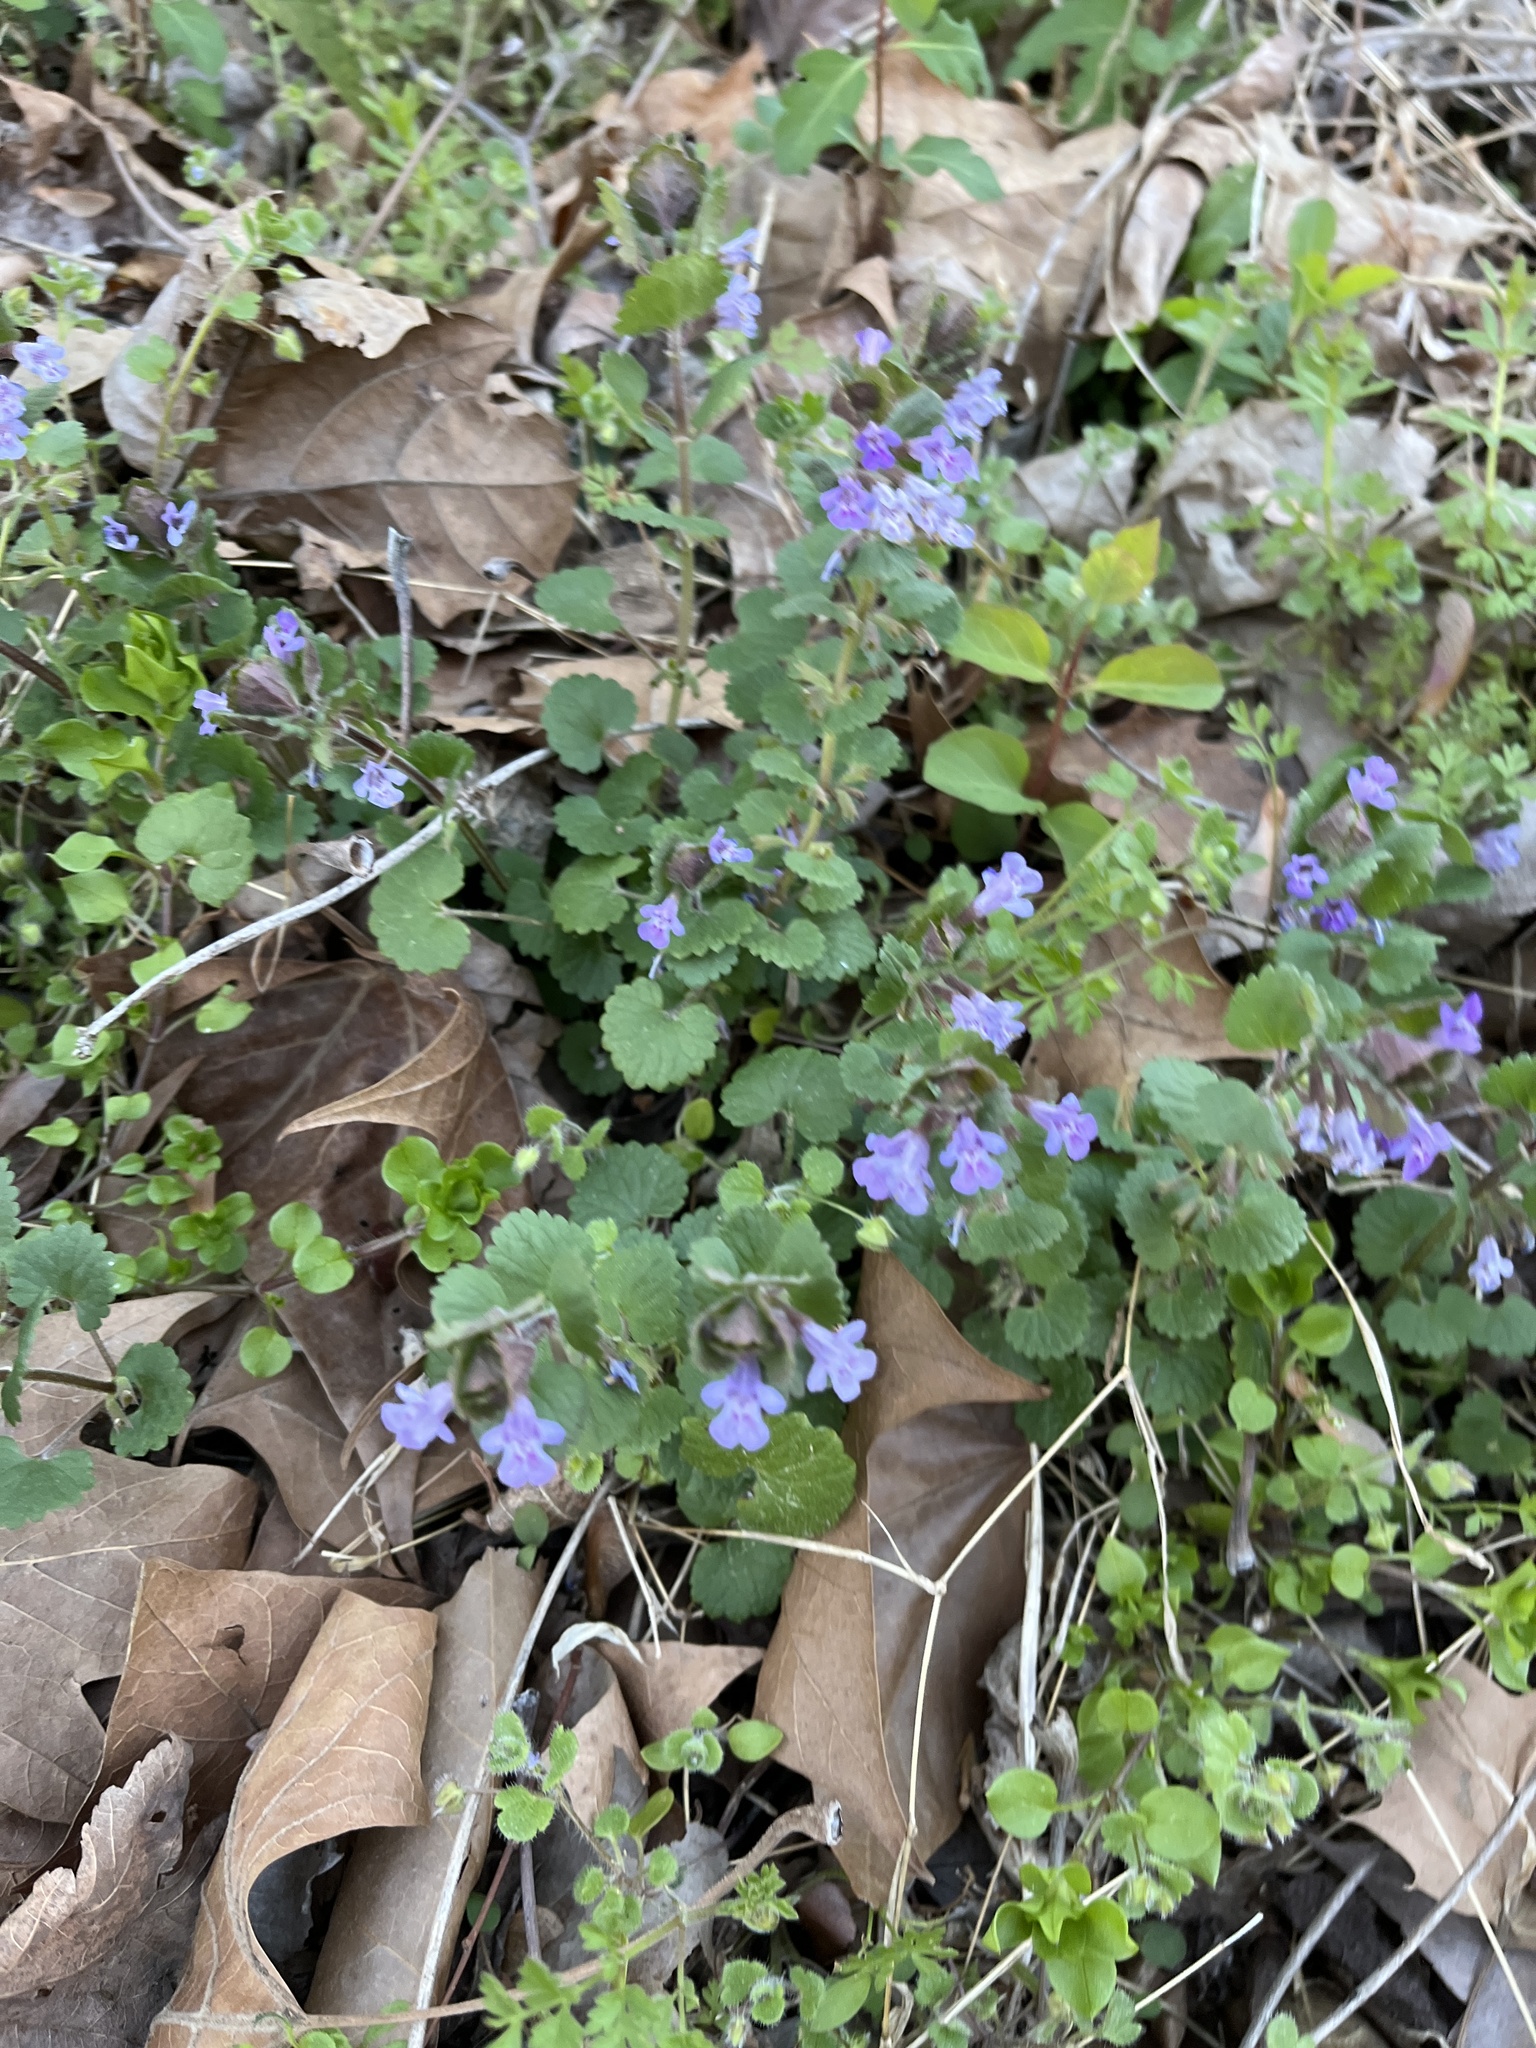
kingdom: Plantae
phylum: Tracheophyta
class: Magnoliopsida
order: Lamiales
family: Lamiaceae
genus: Glechoma
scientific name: Glechoma hederacea
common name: Ground ivy
